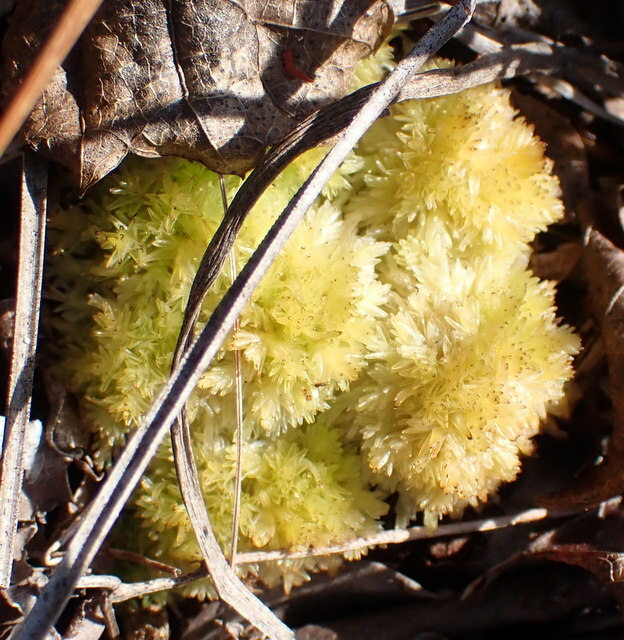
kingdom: Plantae
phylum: Bryophyta
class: Sphagnopsida
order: Sphagnales
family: Sphagnaceae
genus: Sphagnum
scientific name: Sphagnum strictum
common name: Pale bog-moss
